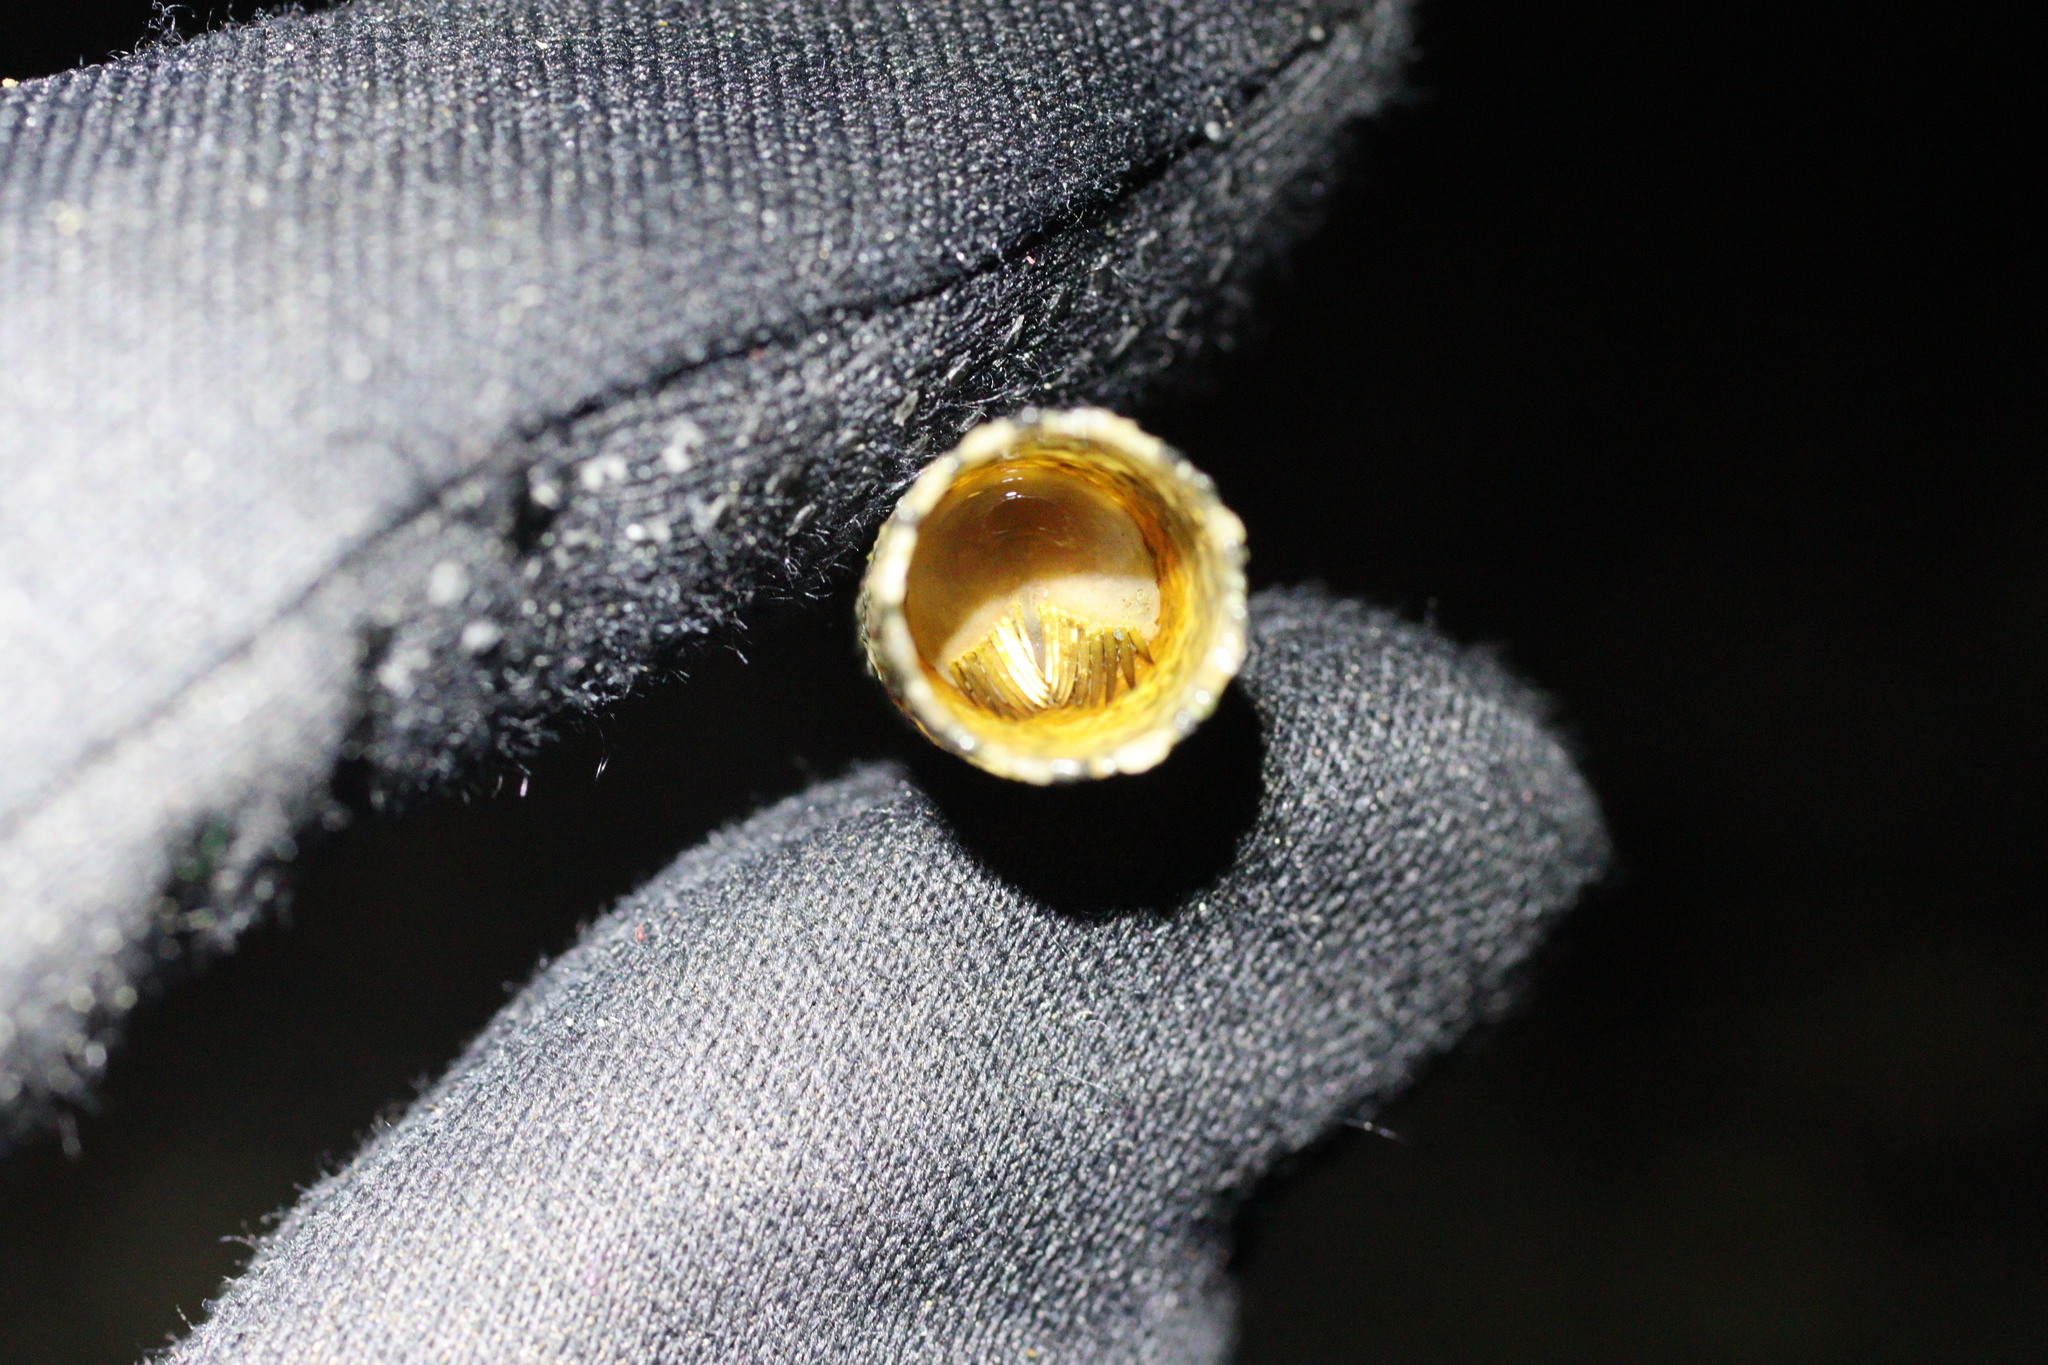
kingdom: Animalia
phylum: Annelida
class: Polychaeta
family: Pectinariidae
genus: Cistenides
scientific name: Cistenides brevicoma
